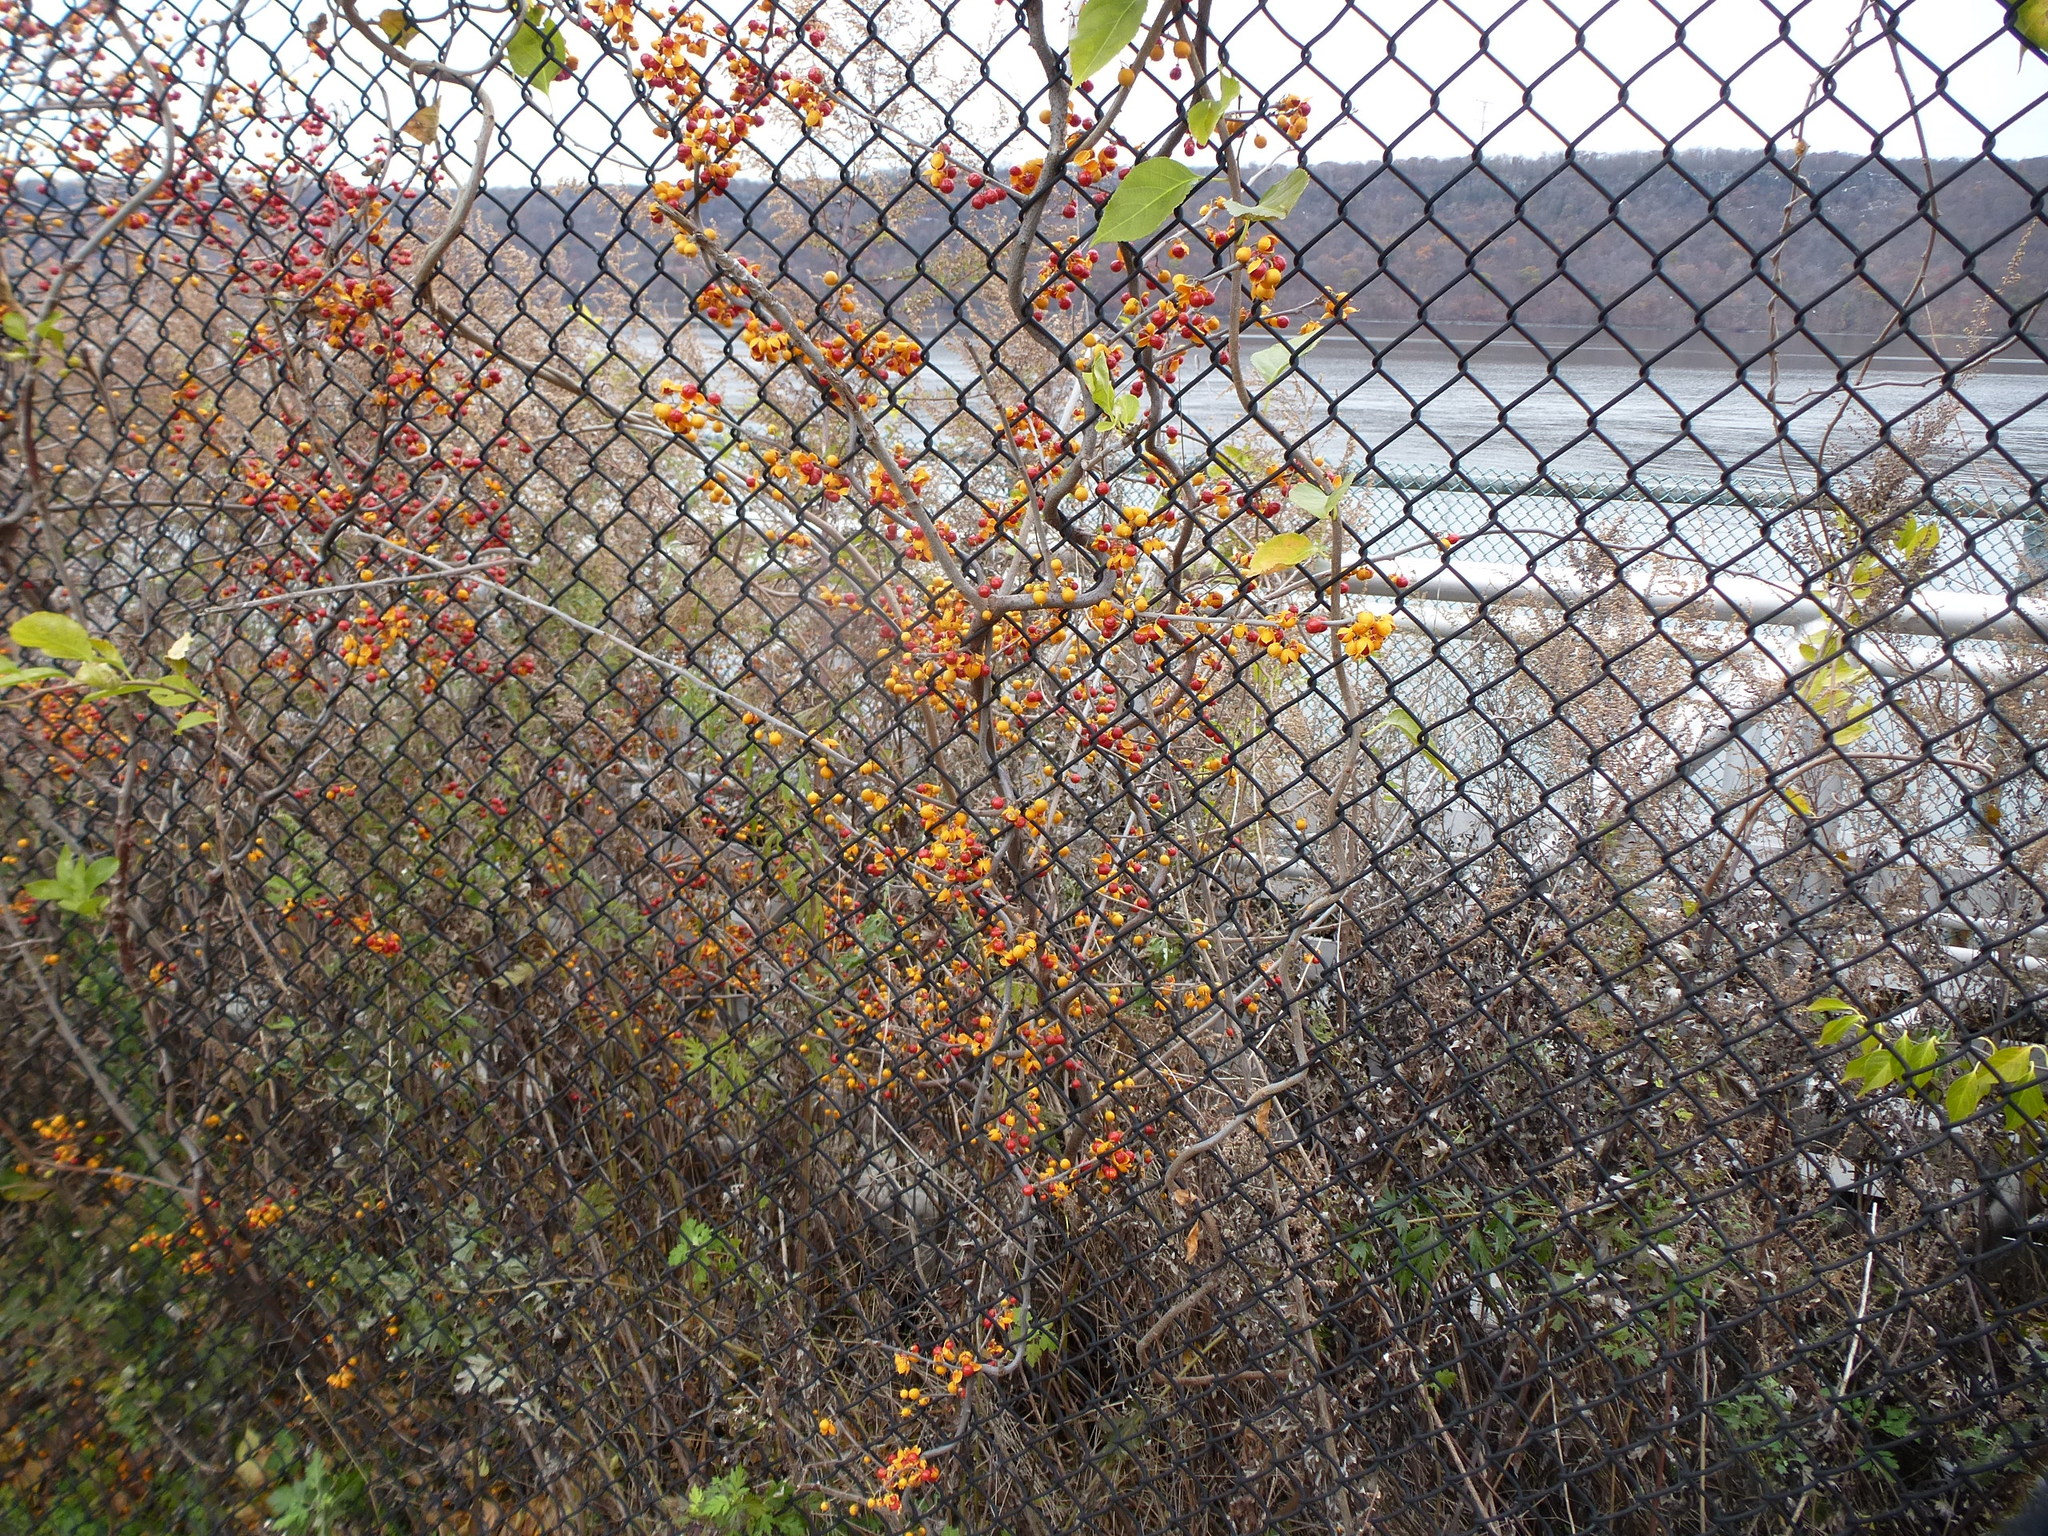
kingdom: Plantae
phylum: Tracheophyta
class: Magnoliopsida
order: Celastrales
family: Celastraceae
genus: Celastrus
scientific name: Celastrus orbiculatus
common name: Oriental bittersweet
